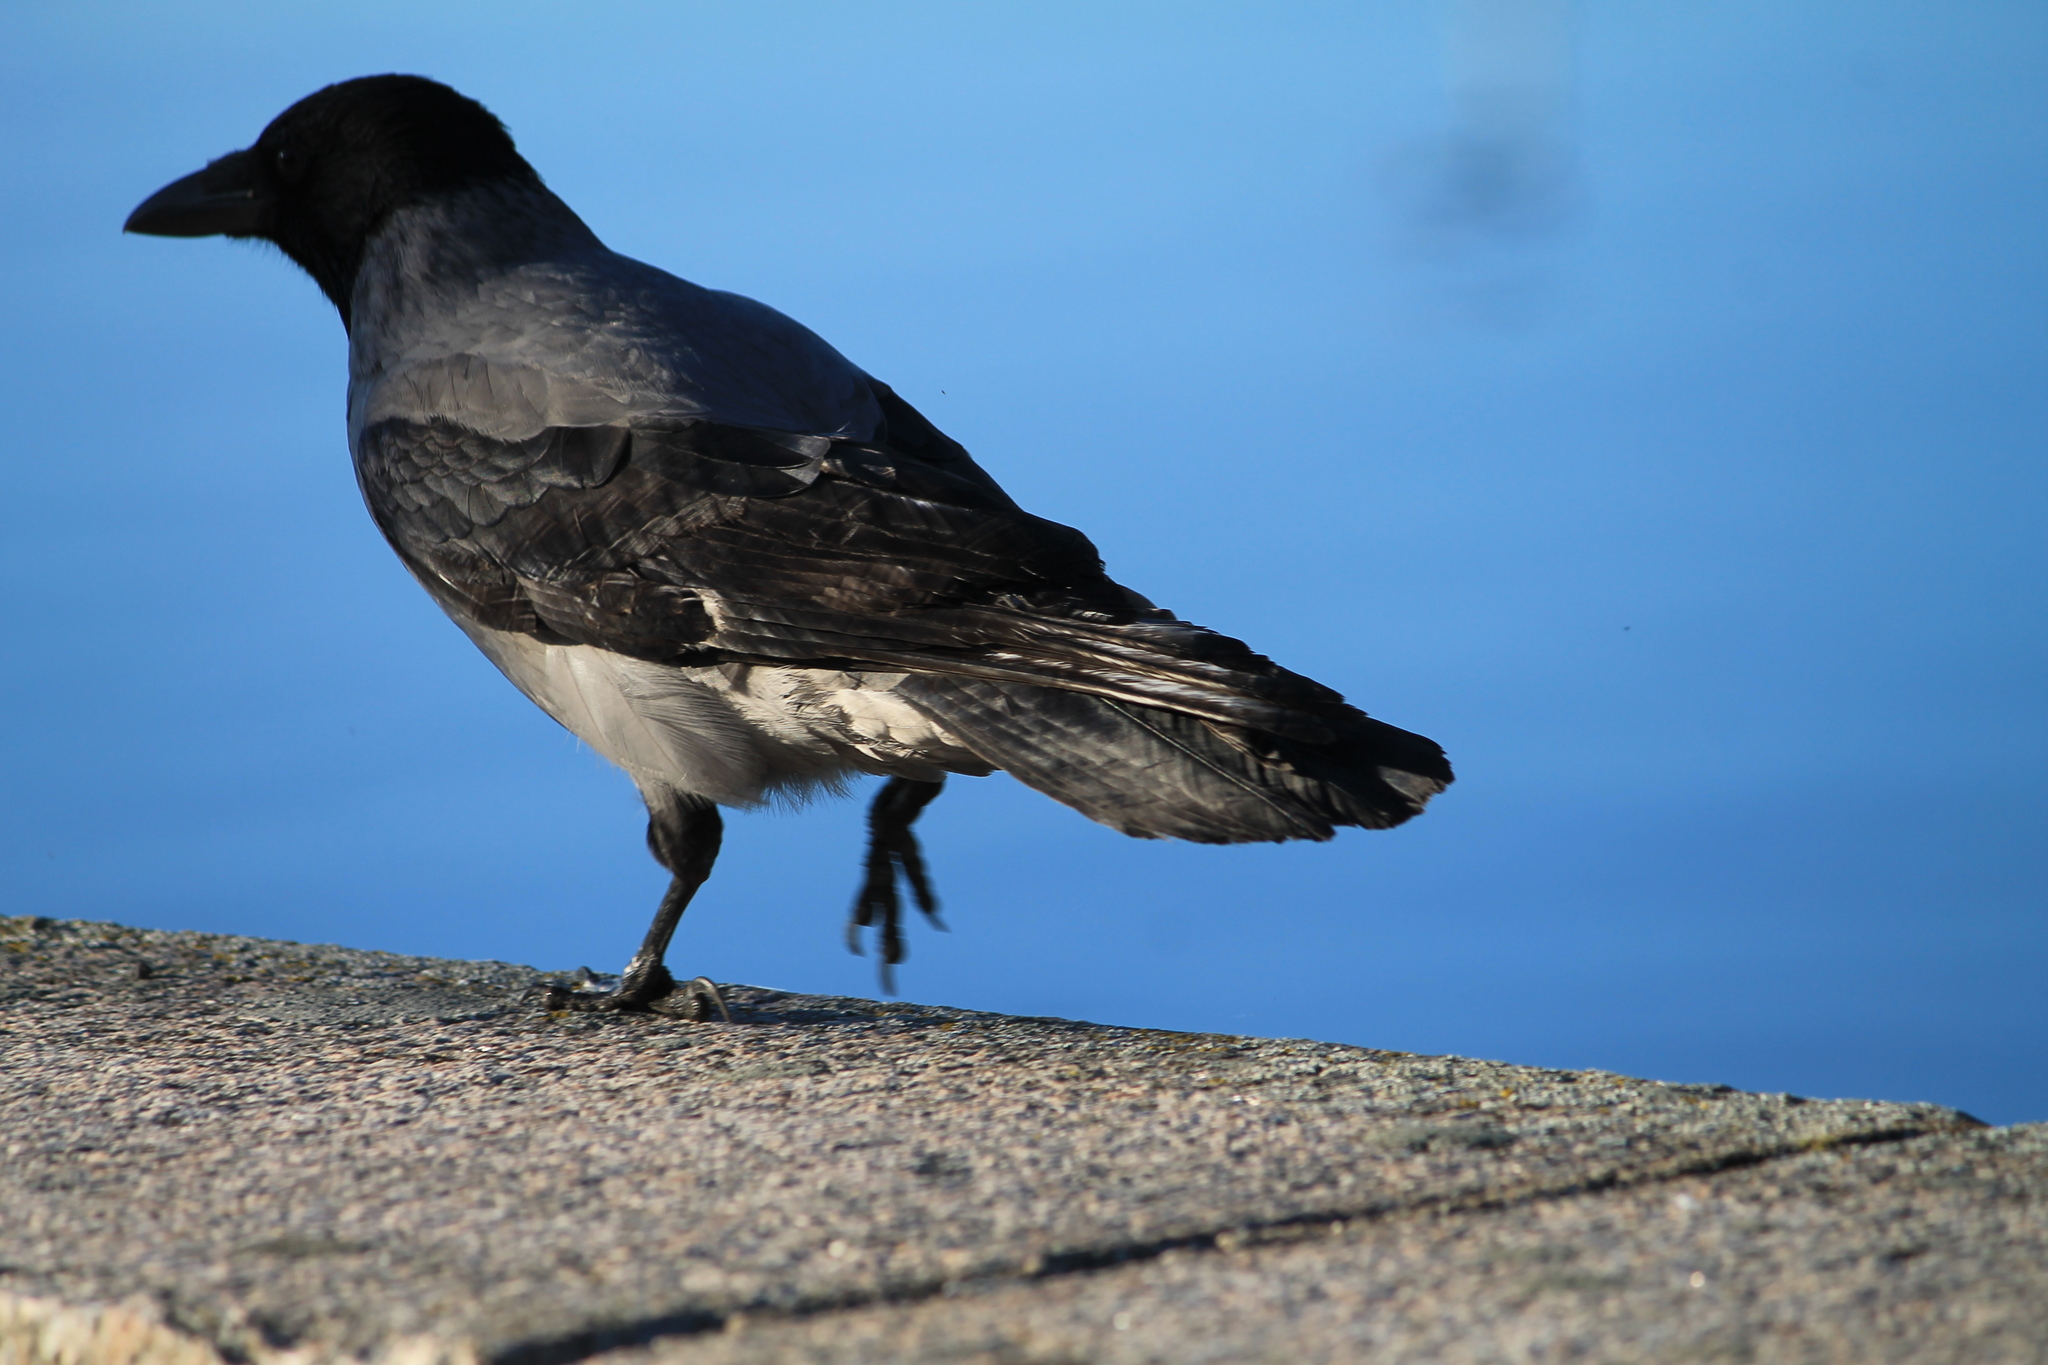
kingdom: Animalia
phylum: Chordata
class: Aves
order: Passeriformes
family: Corvidae
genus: Corvus
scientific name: Corvus cornix
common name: Hooded crow
